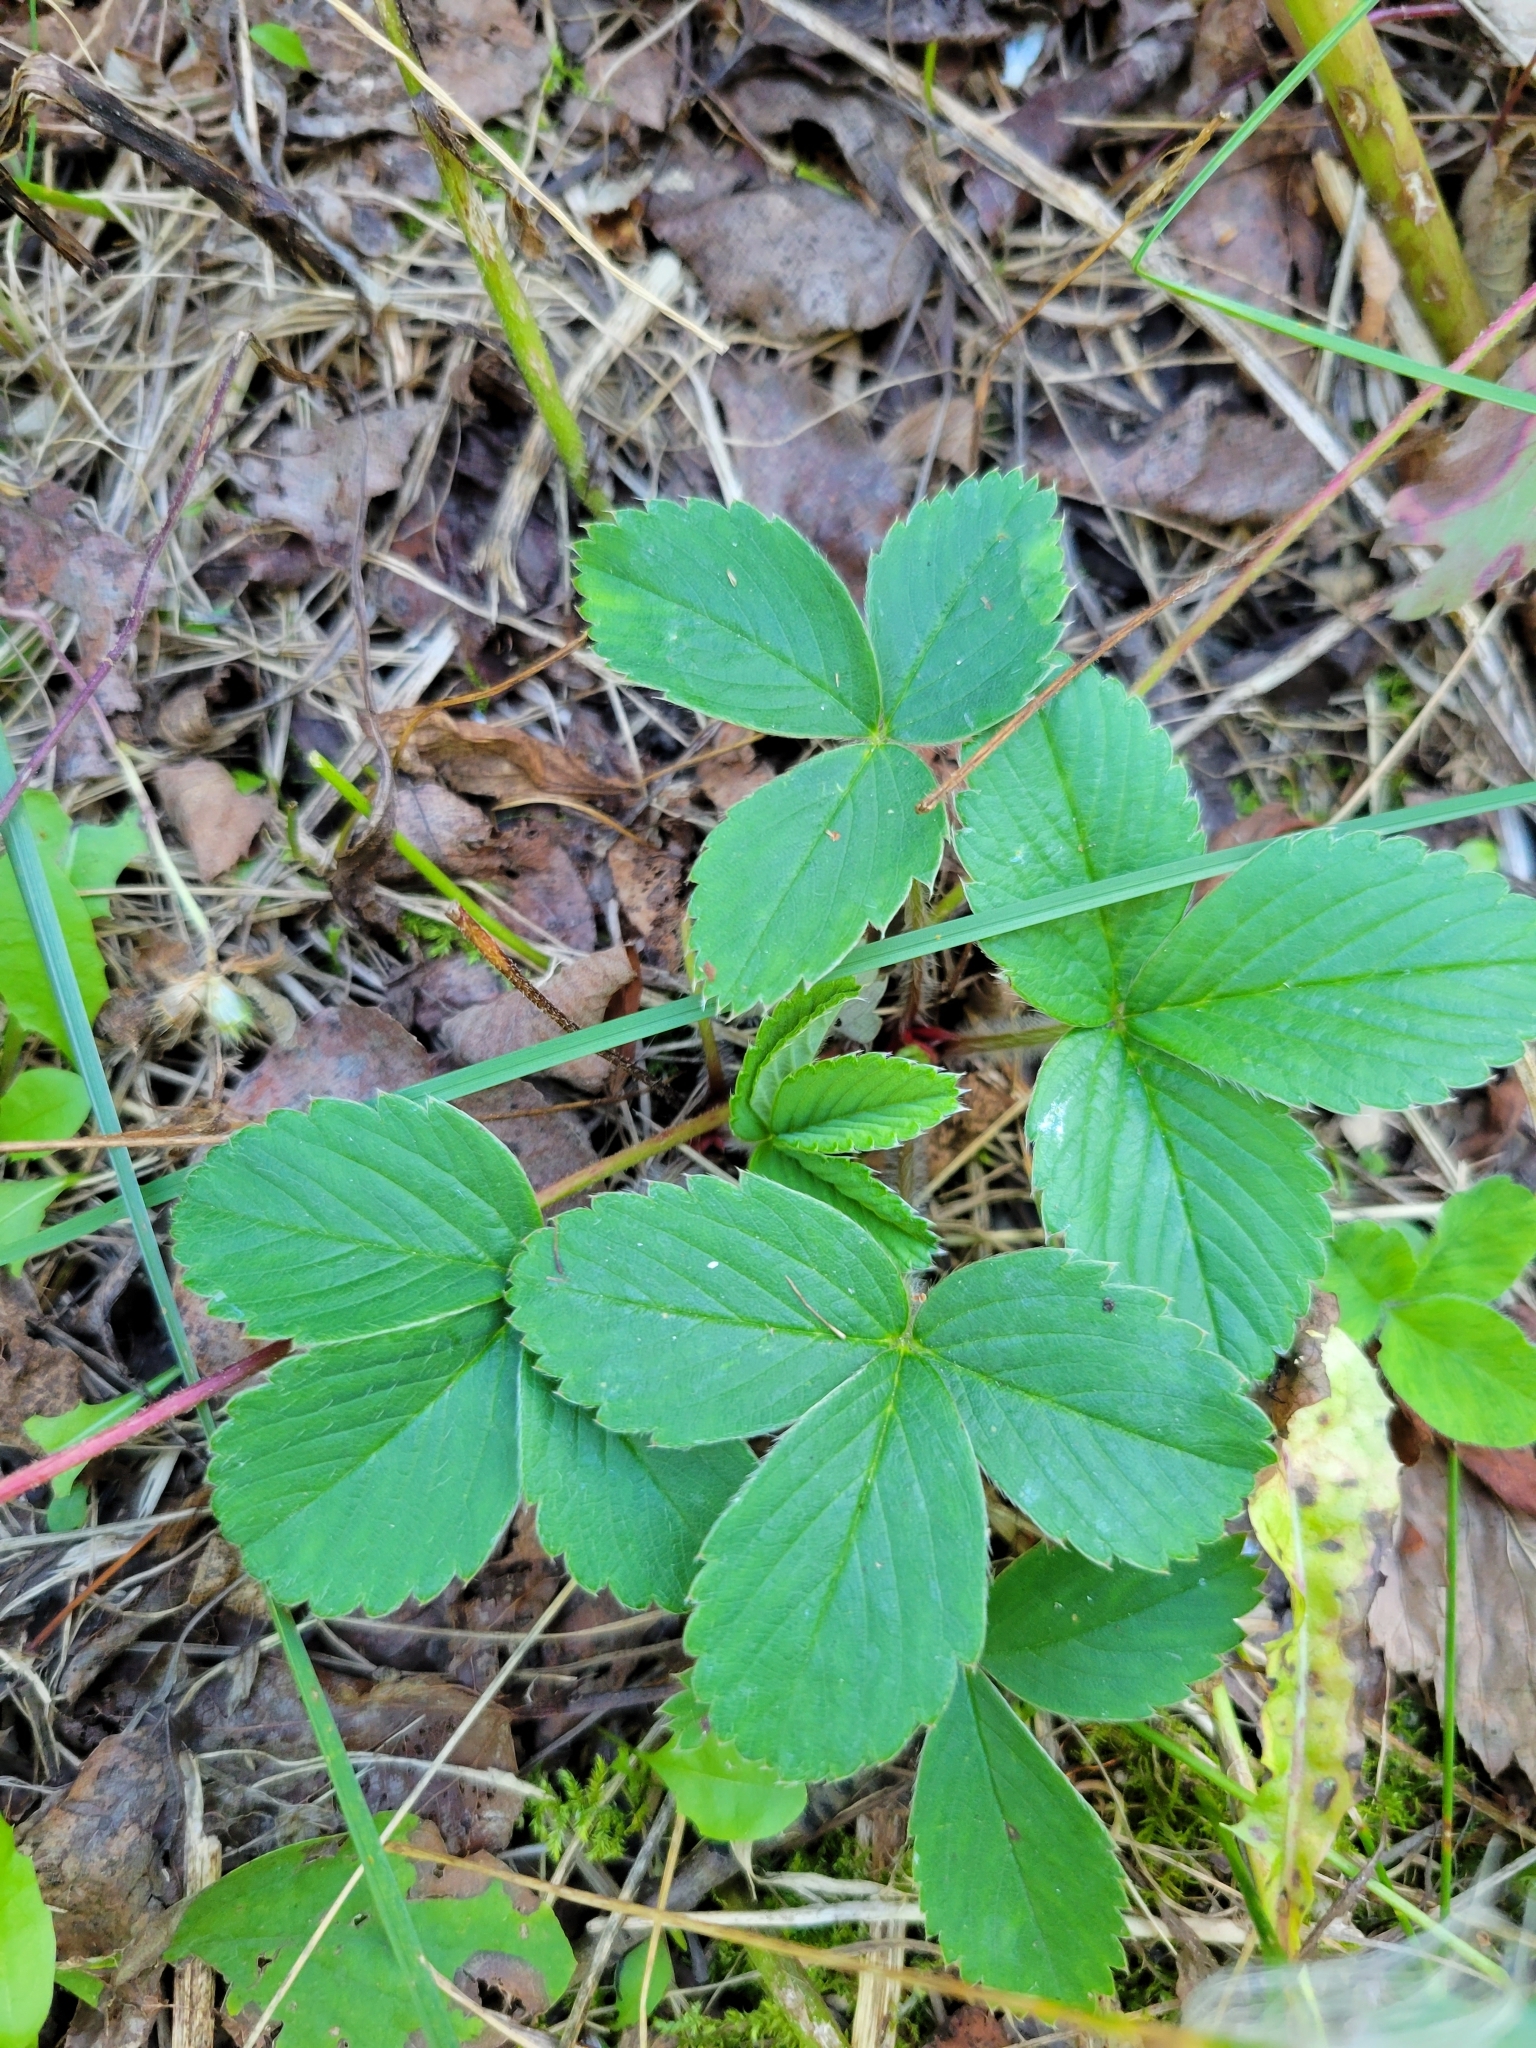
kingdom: Plantae
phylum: Tracheophyta
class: Magnoliopsida
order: Rosales
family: Rosaceae
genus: Fragaria
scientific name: Fragaria virginiana
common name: Thickleaved wild strawberry
